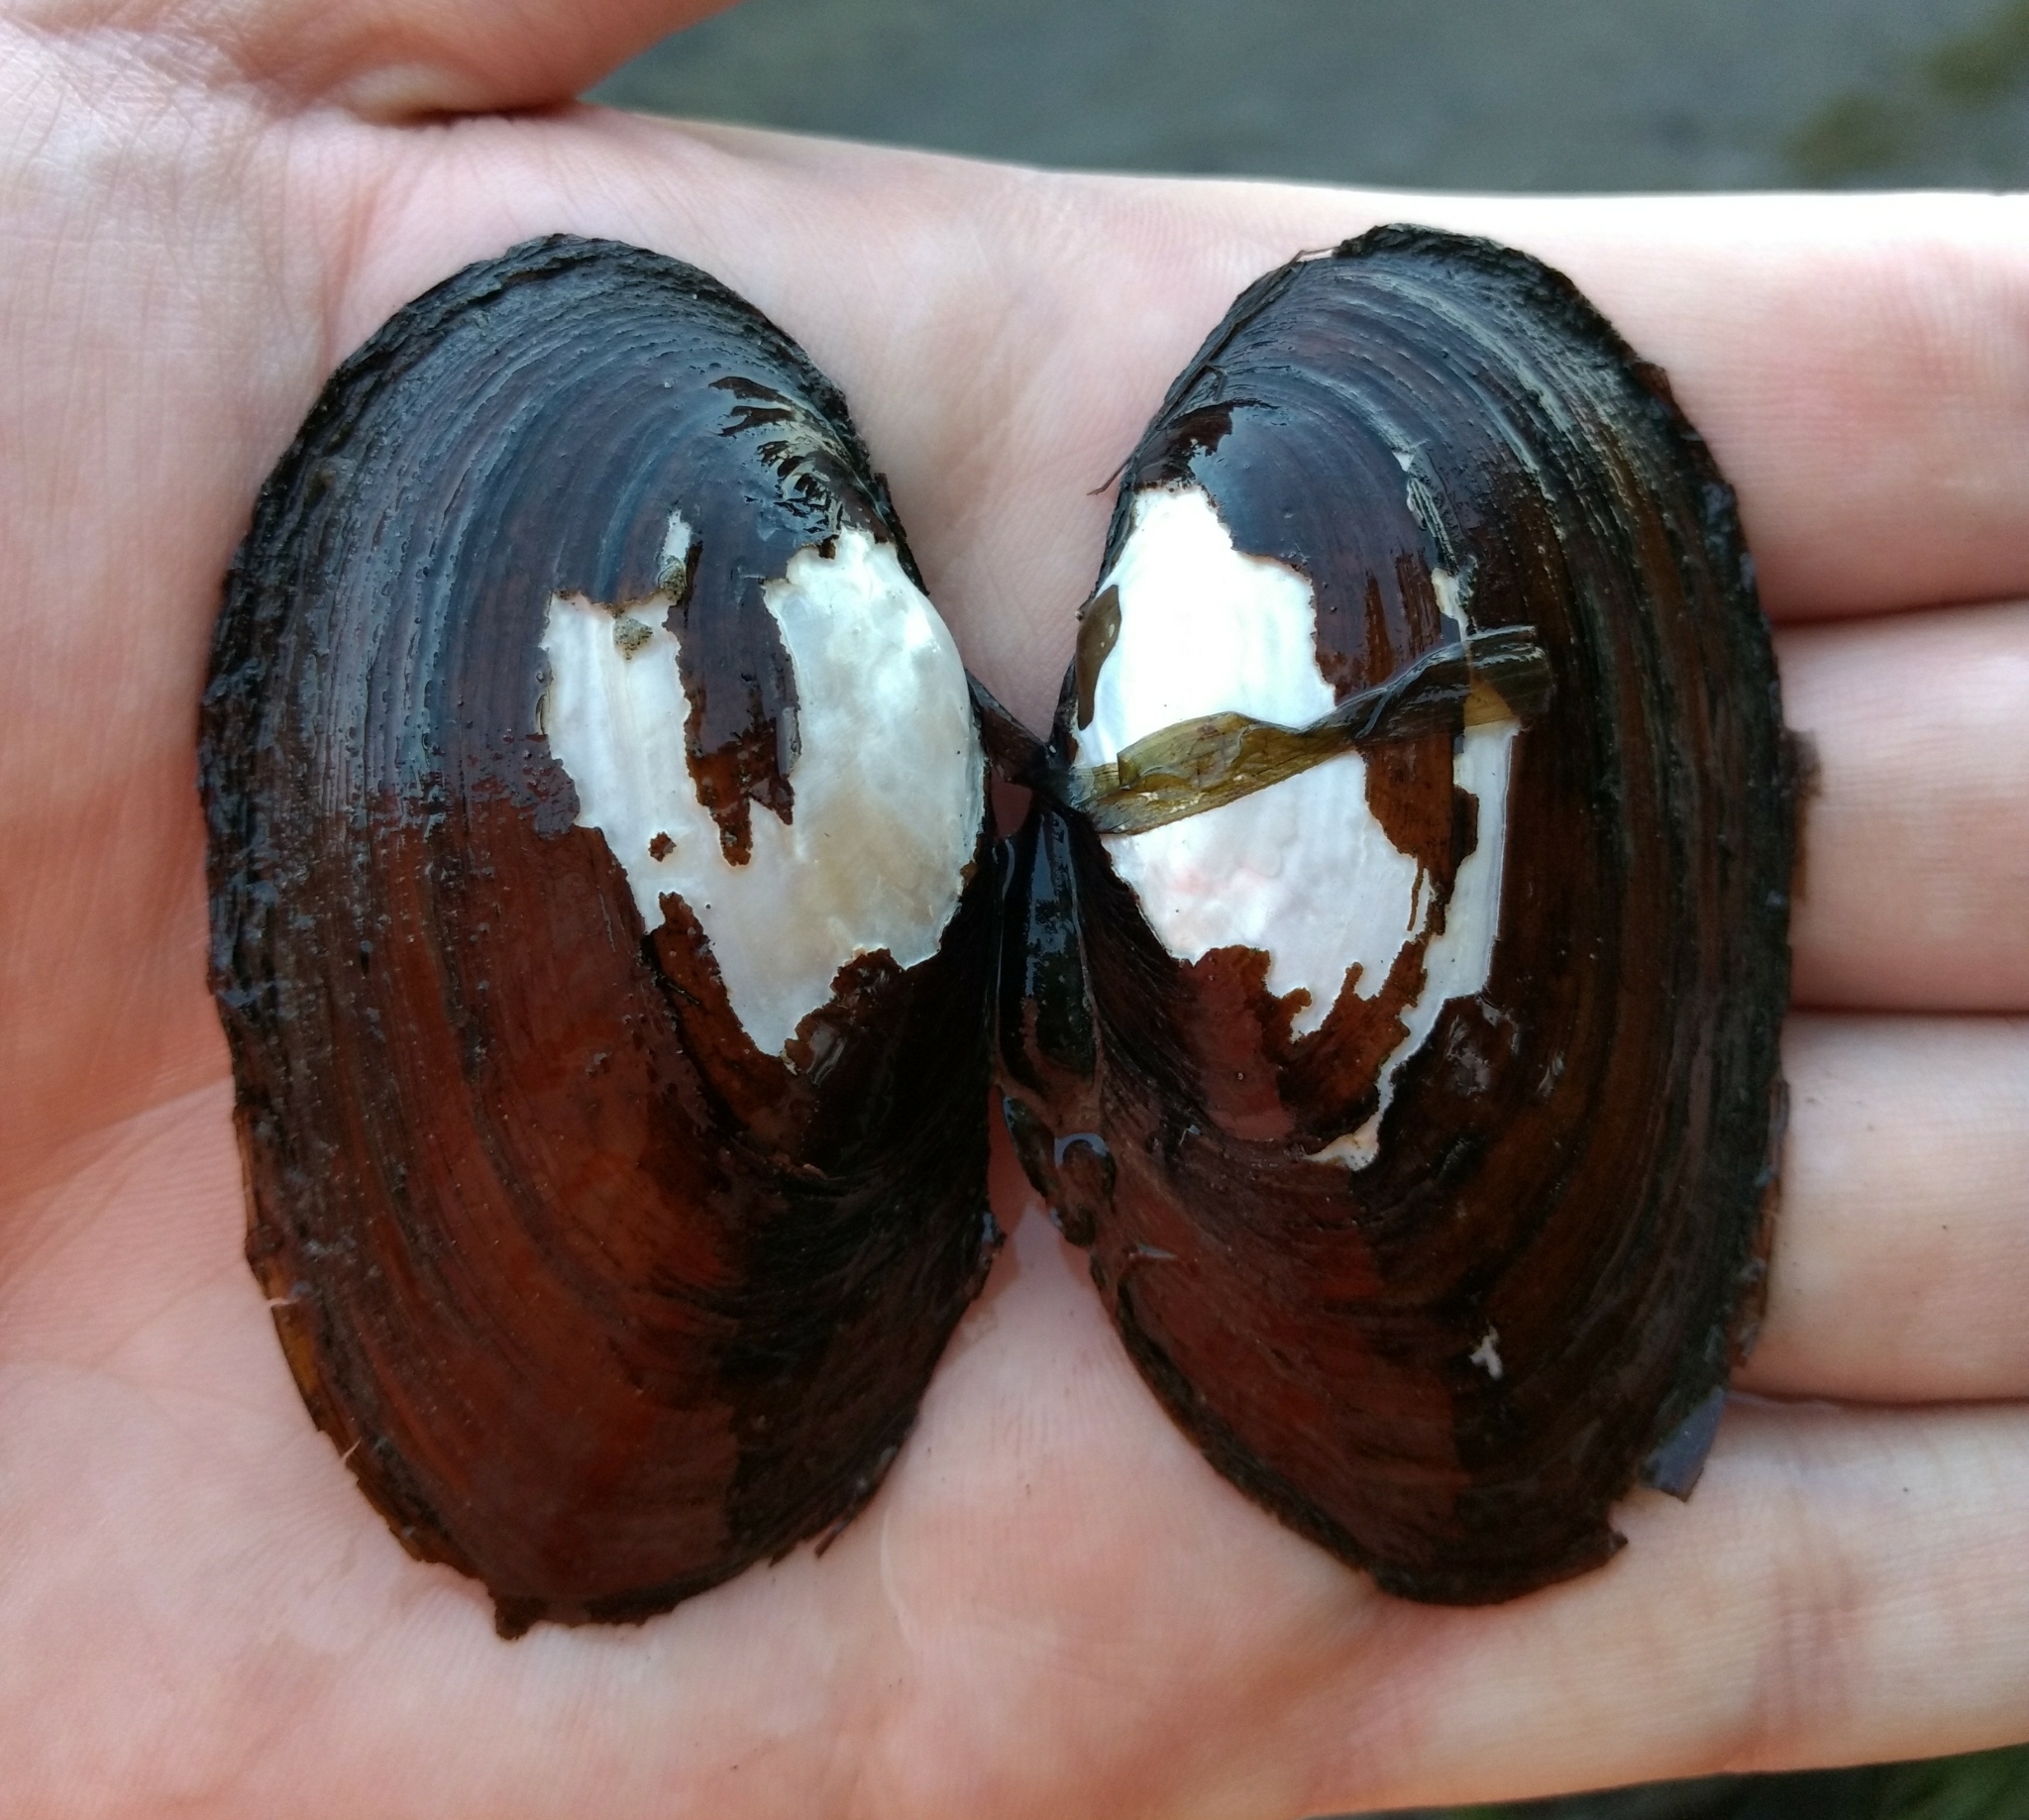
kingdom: Animalia
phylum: Mollusca
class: Bivalvia
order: Unionida
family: Unionidae
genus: Elliptio
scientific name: Elliptio complanata
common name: Eastern elliptio
